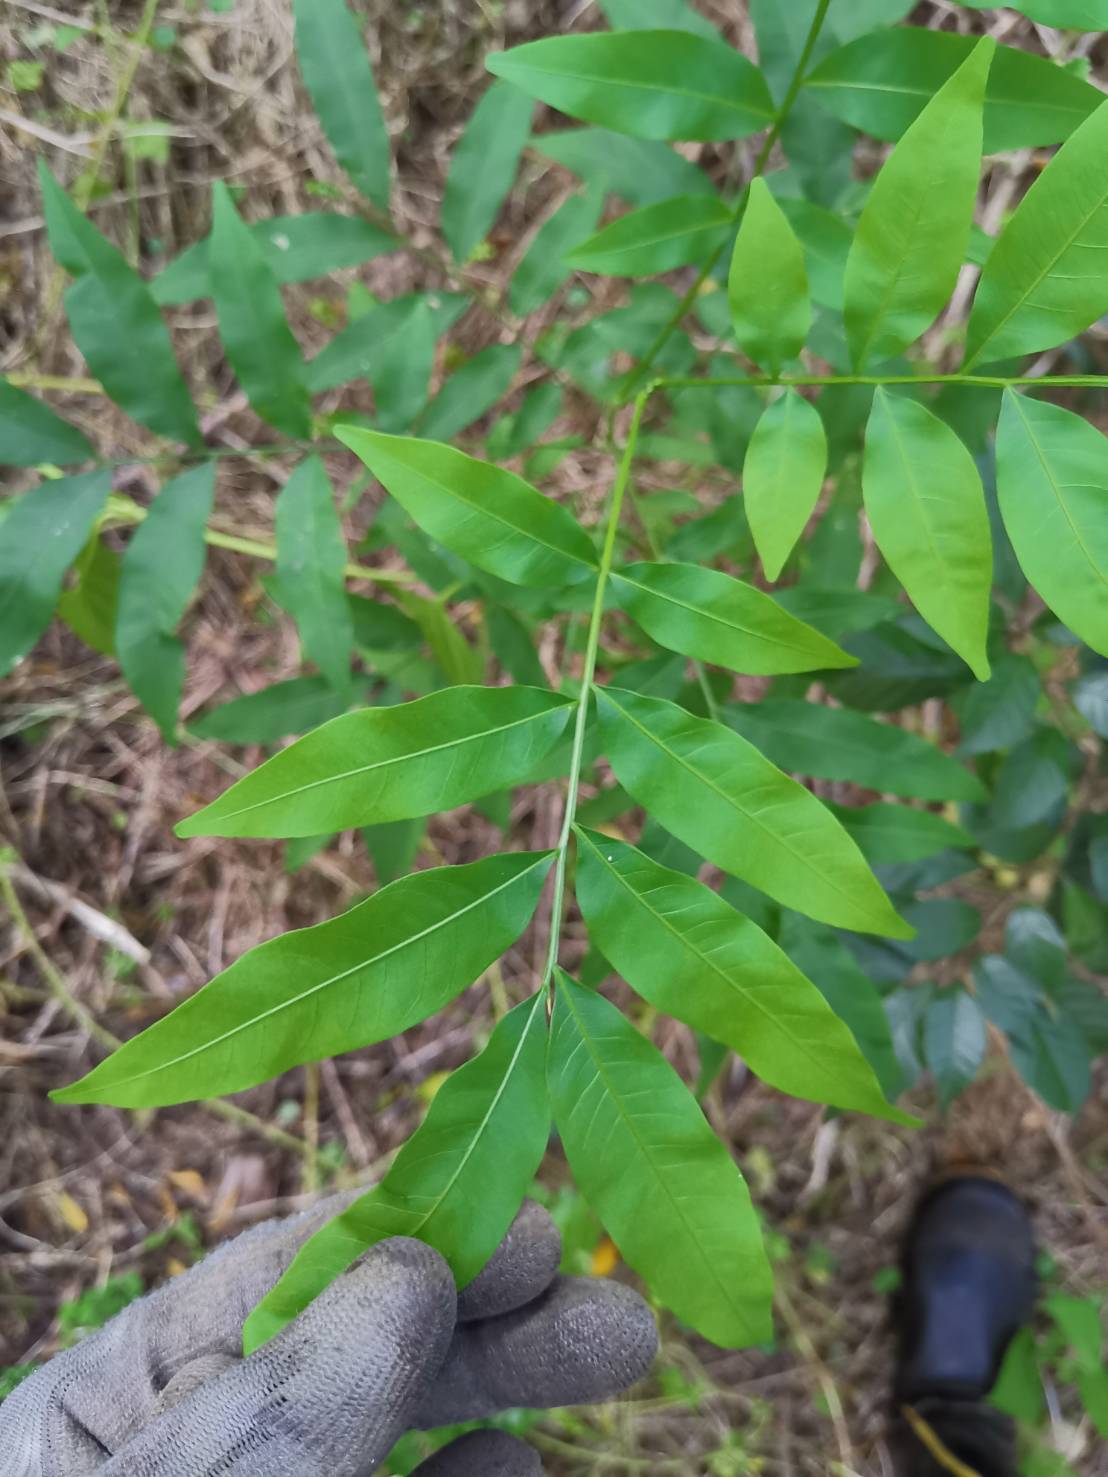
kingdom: Plantae
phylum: Tracheophyta
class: Magnoliopsida
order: Sapindales
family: Sapindaceae
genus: Sapindus
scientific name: Sapindus mukorossi
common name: Chinese soapberry
